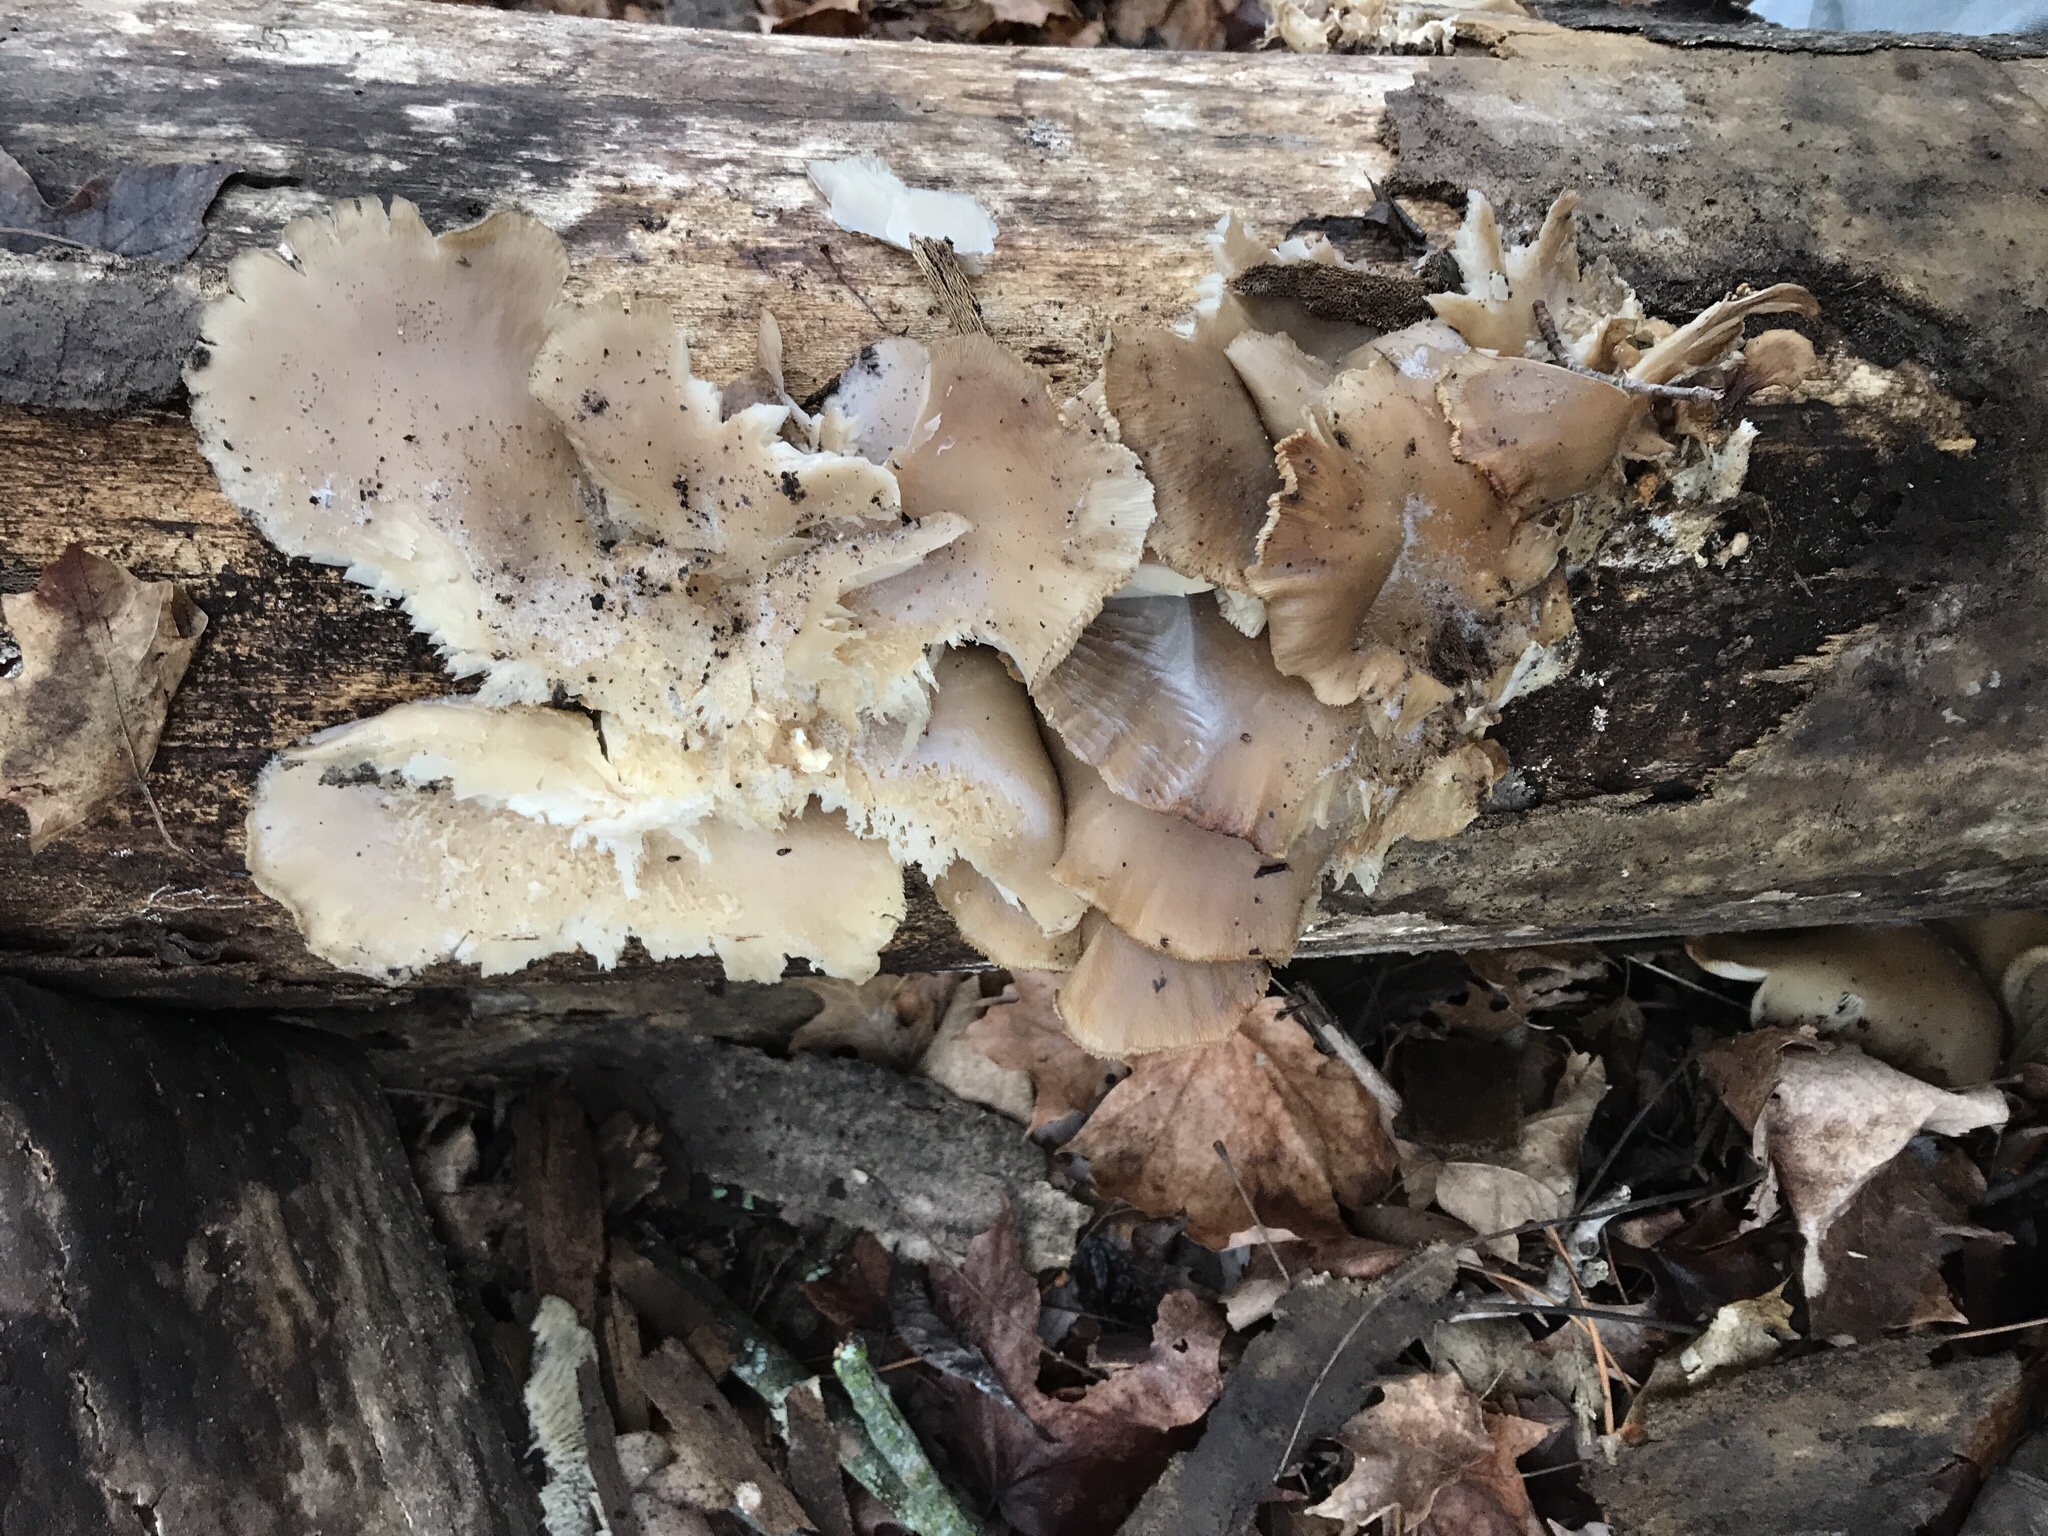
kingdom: Fungi
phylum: Basidiomycota
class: Agaricomycetes
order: Agaricales
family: Pleurotaceae
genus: Pleurotus
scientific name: Pleurotus populinus
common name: Aspen oyster mushroom
